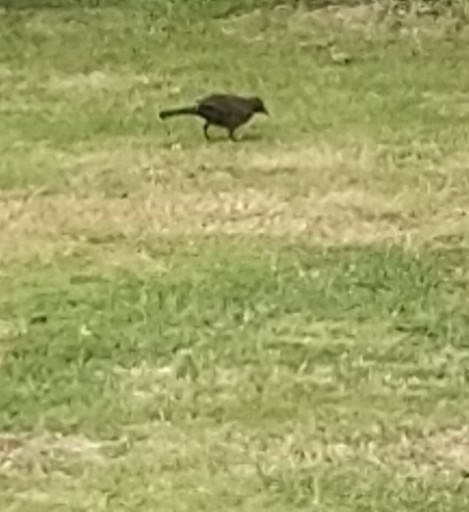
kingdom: Animalia
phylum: Chordata
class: Aves
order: Passeriformes
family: Turdidae
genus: Turdus
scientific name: Turdus merula
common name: Common blackbird
